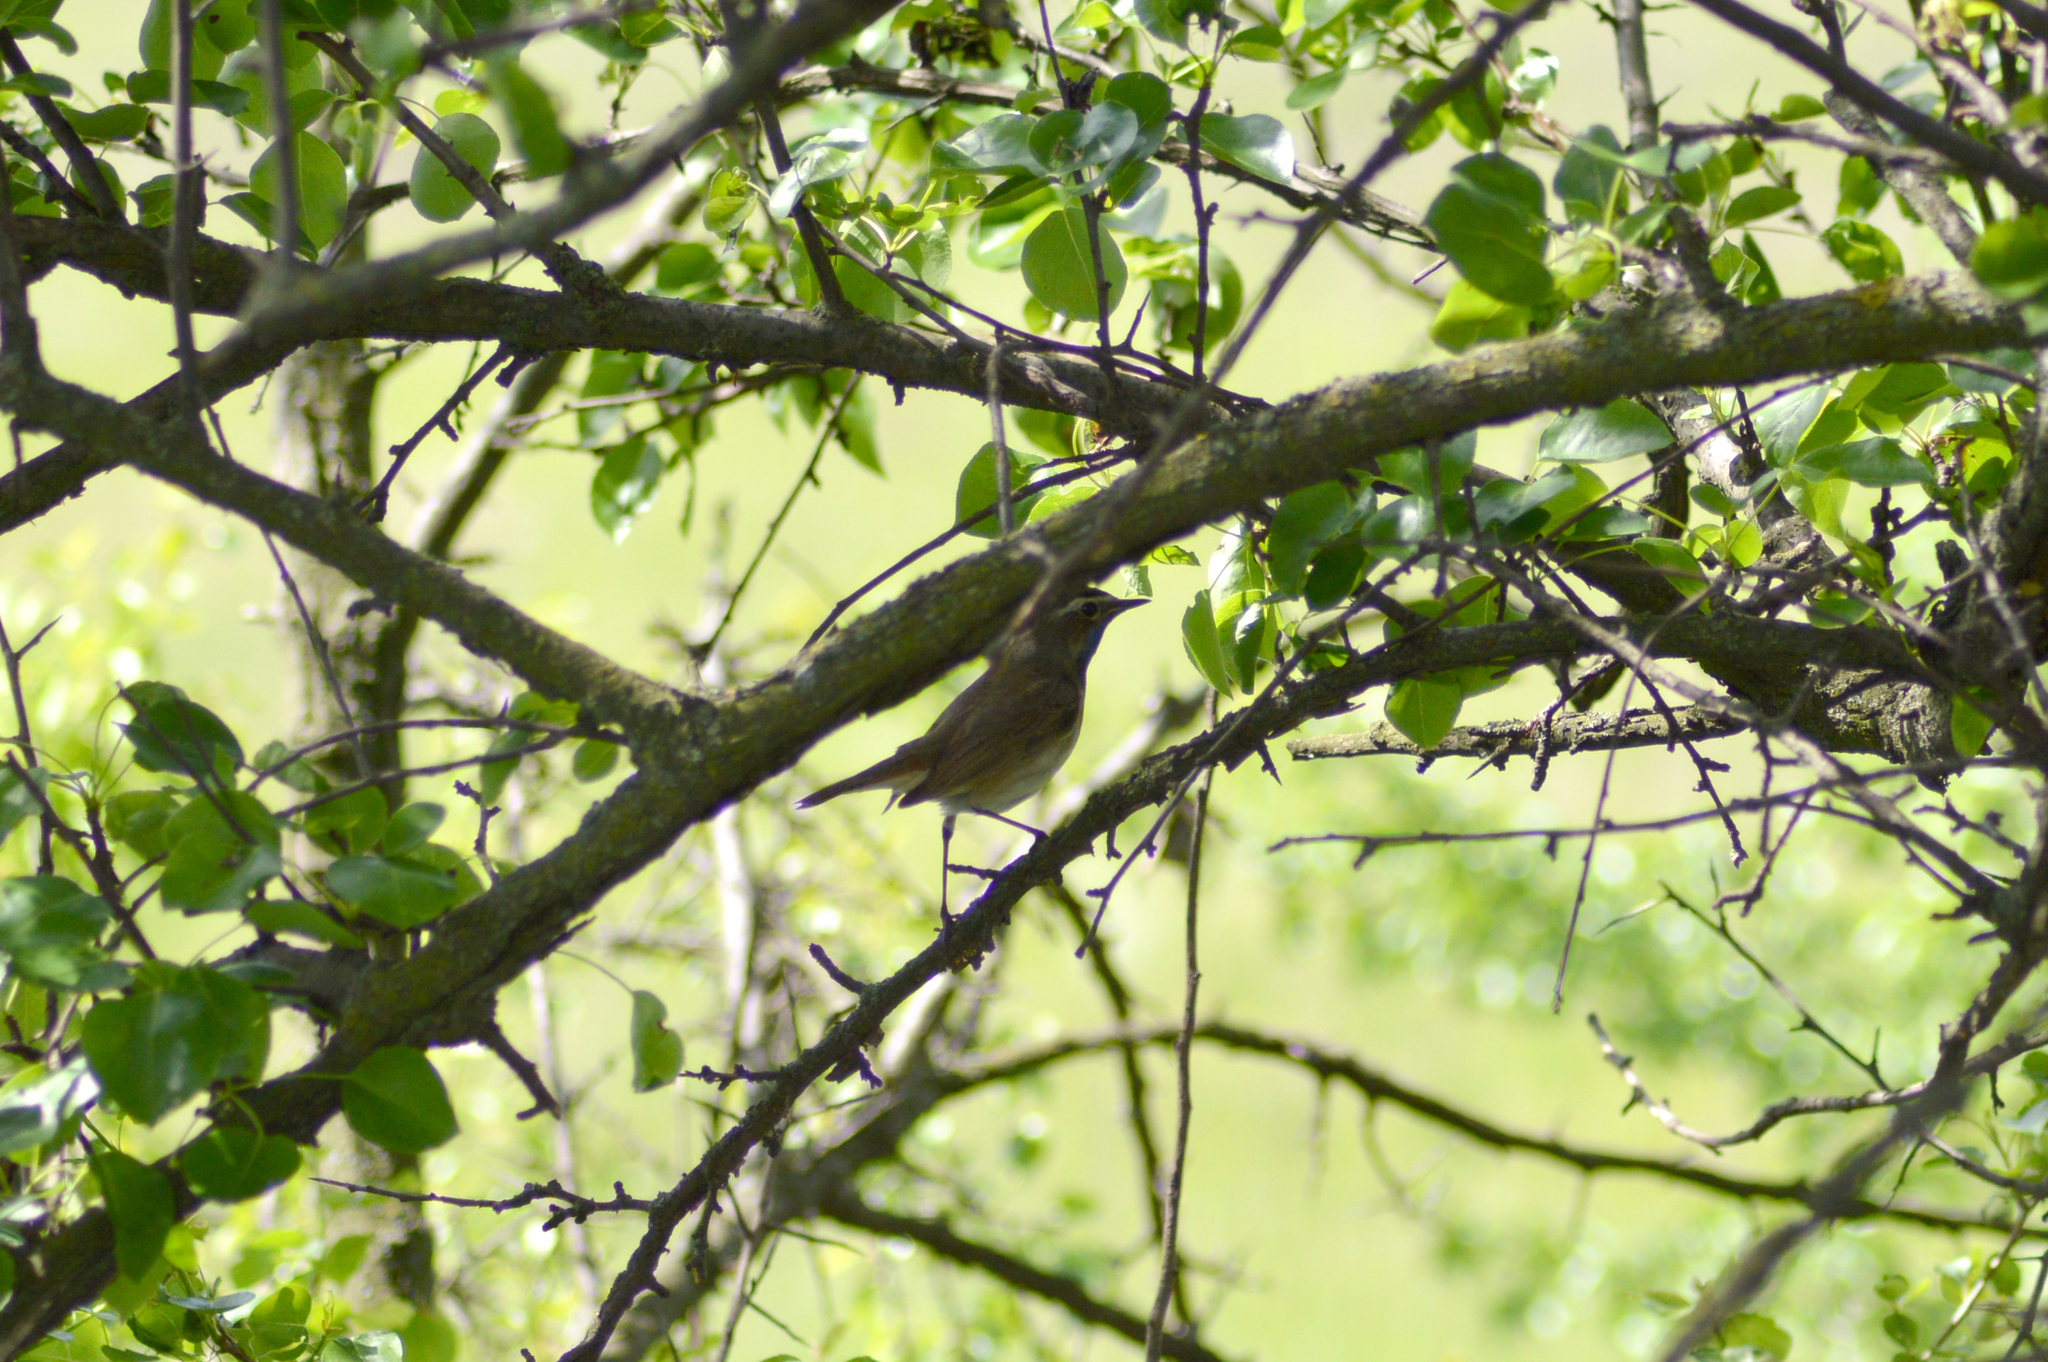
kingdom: Animalia
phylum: Chordata
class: Aves
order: Passeriformes
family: Muscicapidae
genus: Luscinia
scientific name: Luscinia svecica
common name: Bluethroat
